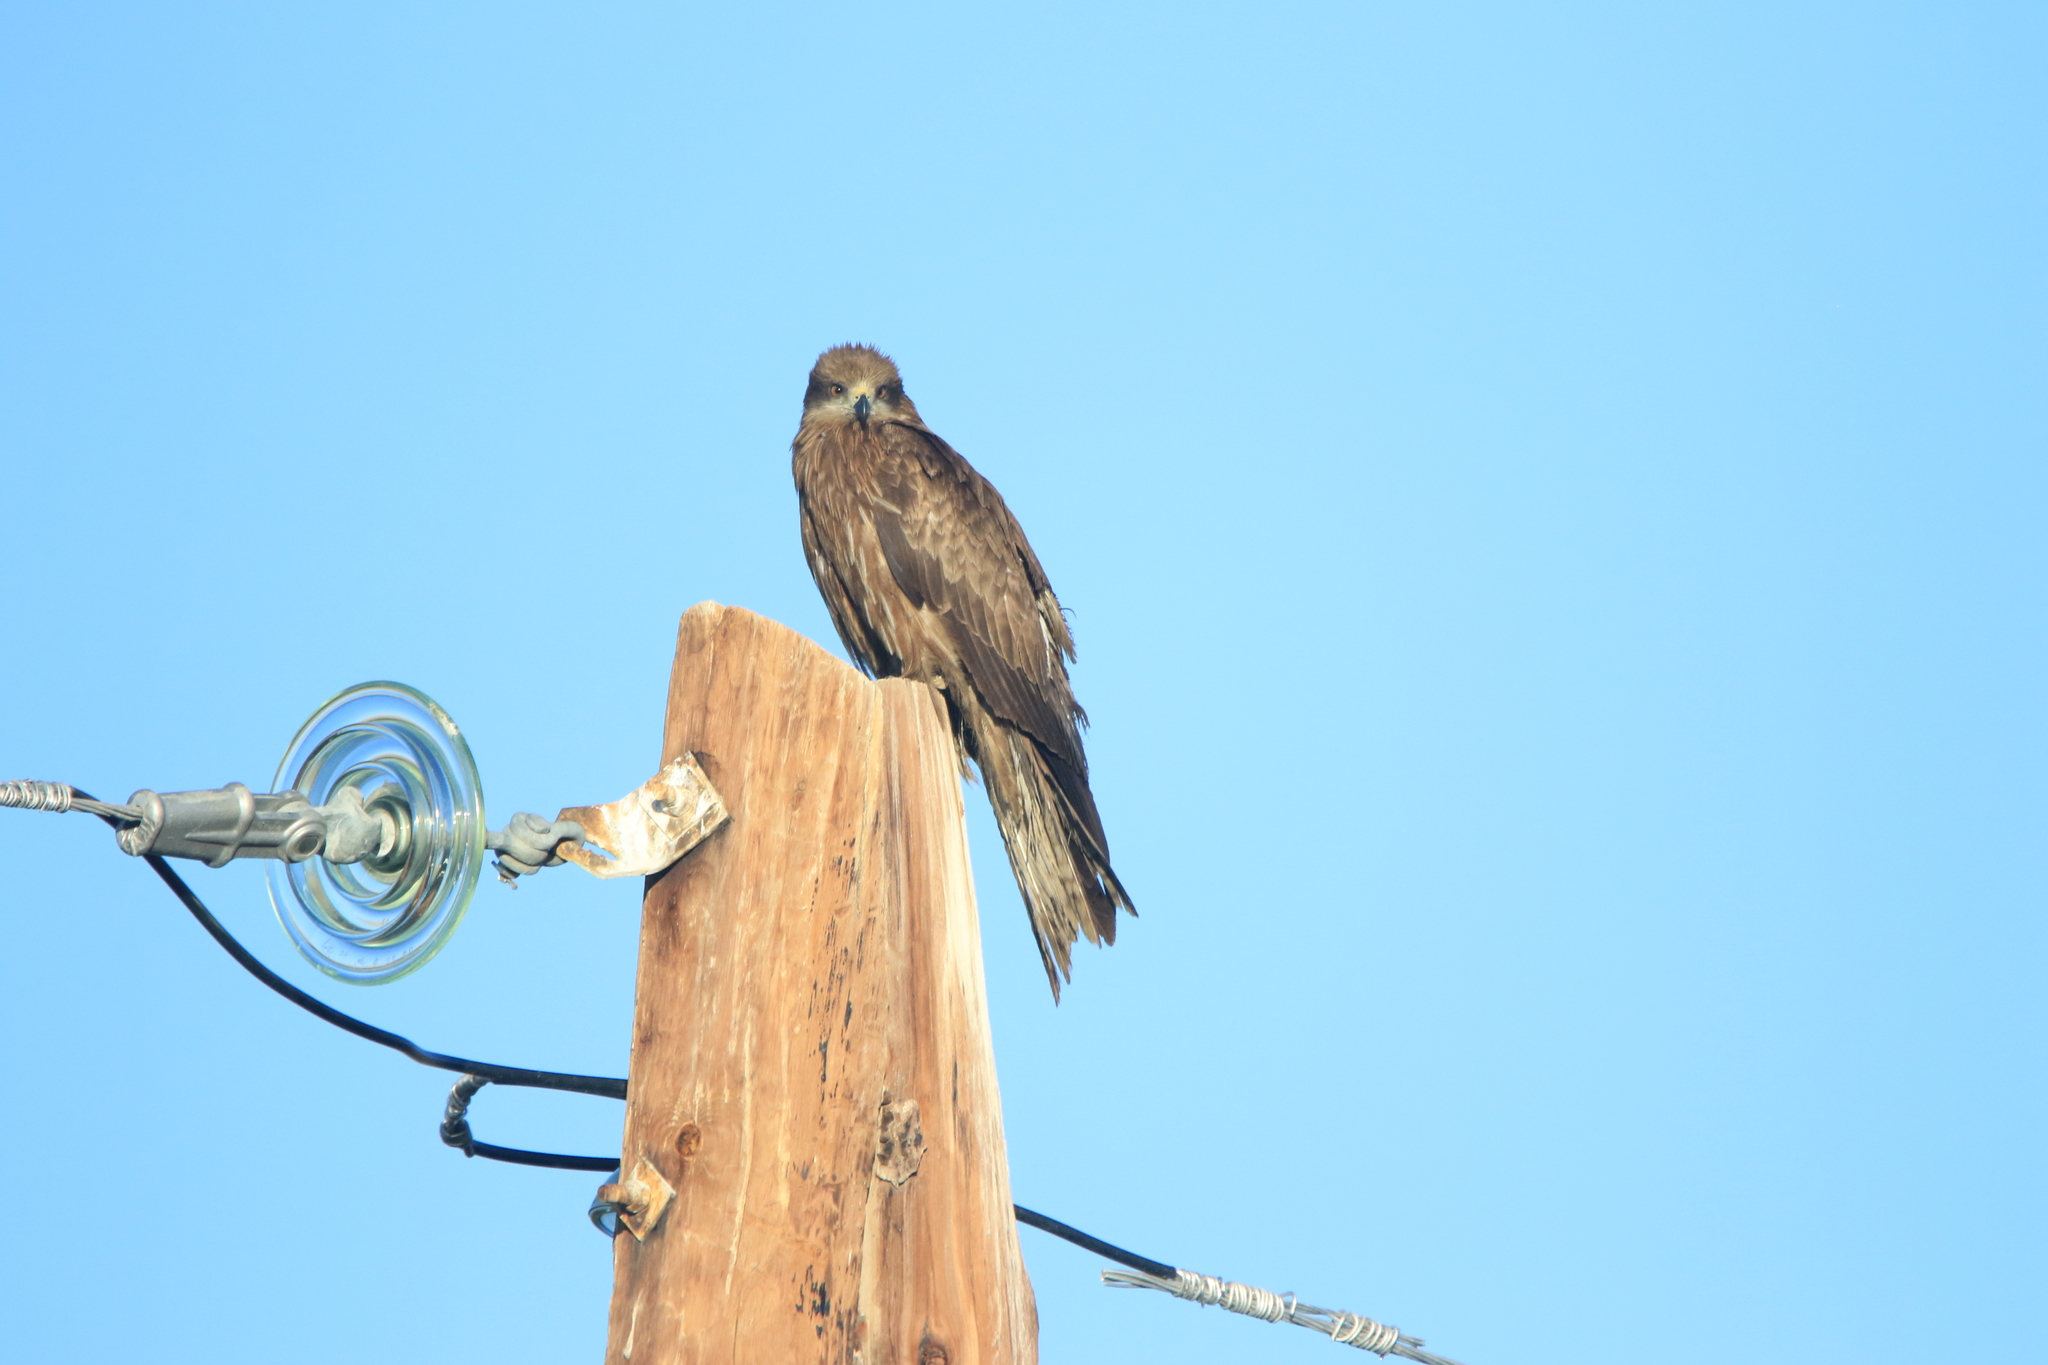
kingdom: Animalia
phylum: Chordata
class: Aves
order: Accipitriformes
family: Accipitridae
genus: Milvus
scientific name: Milvus migrans
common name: Black kite
